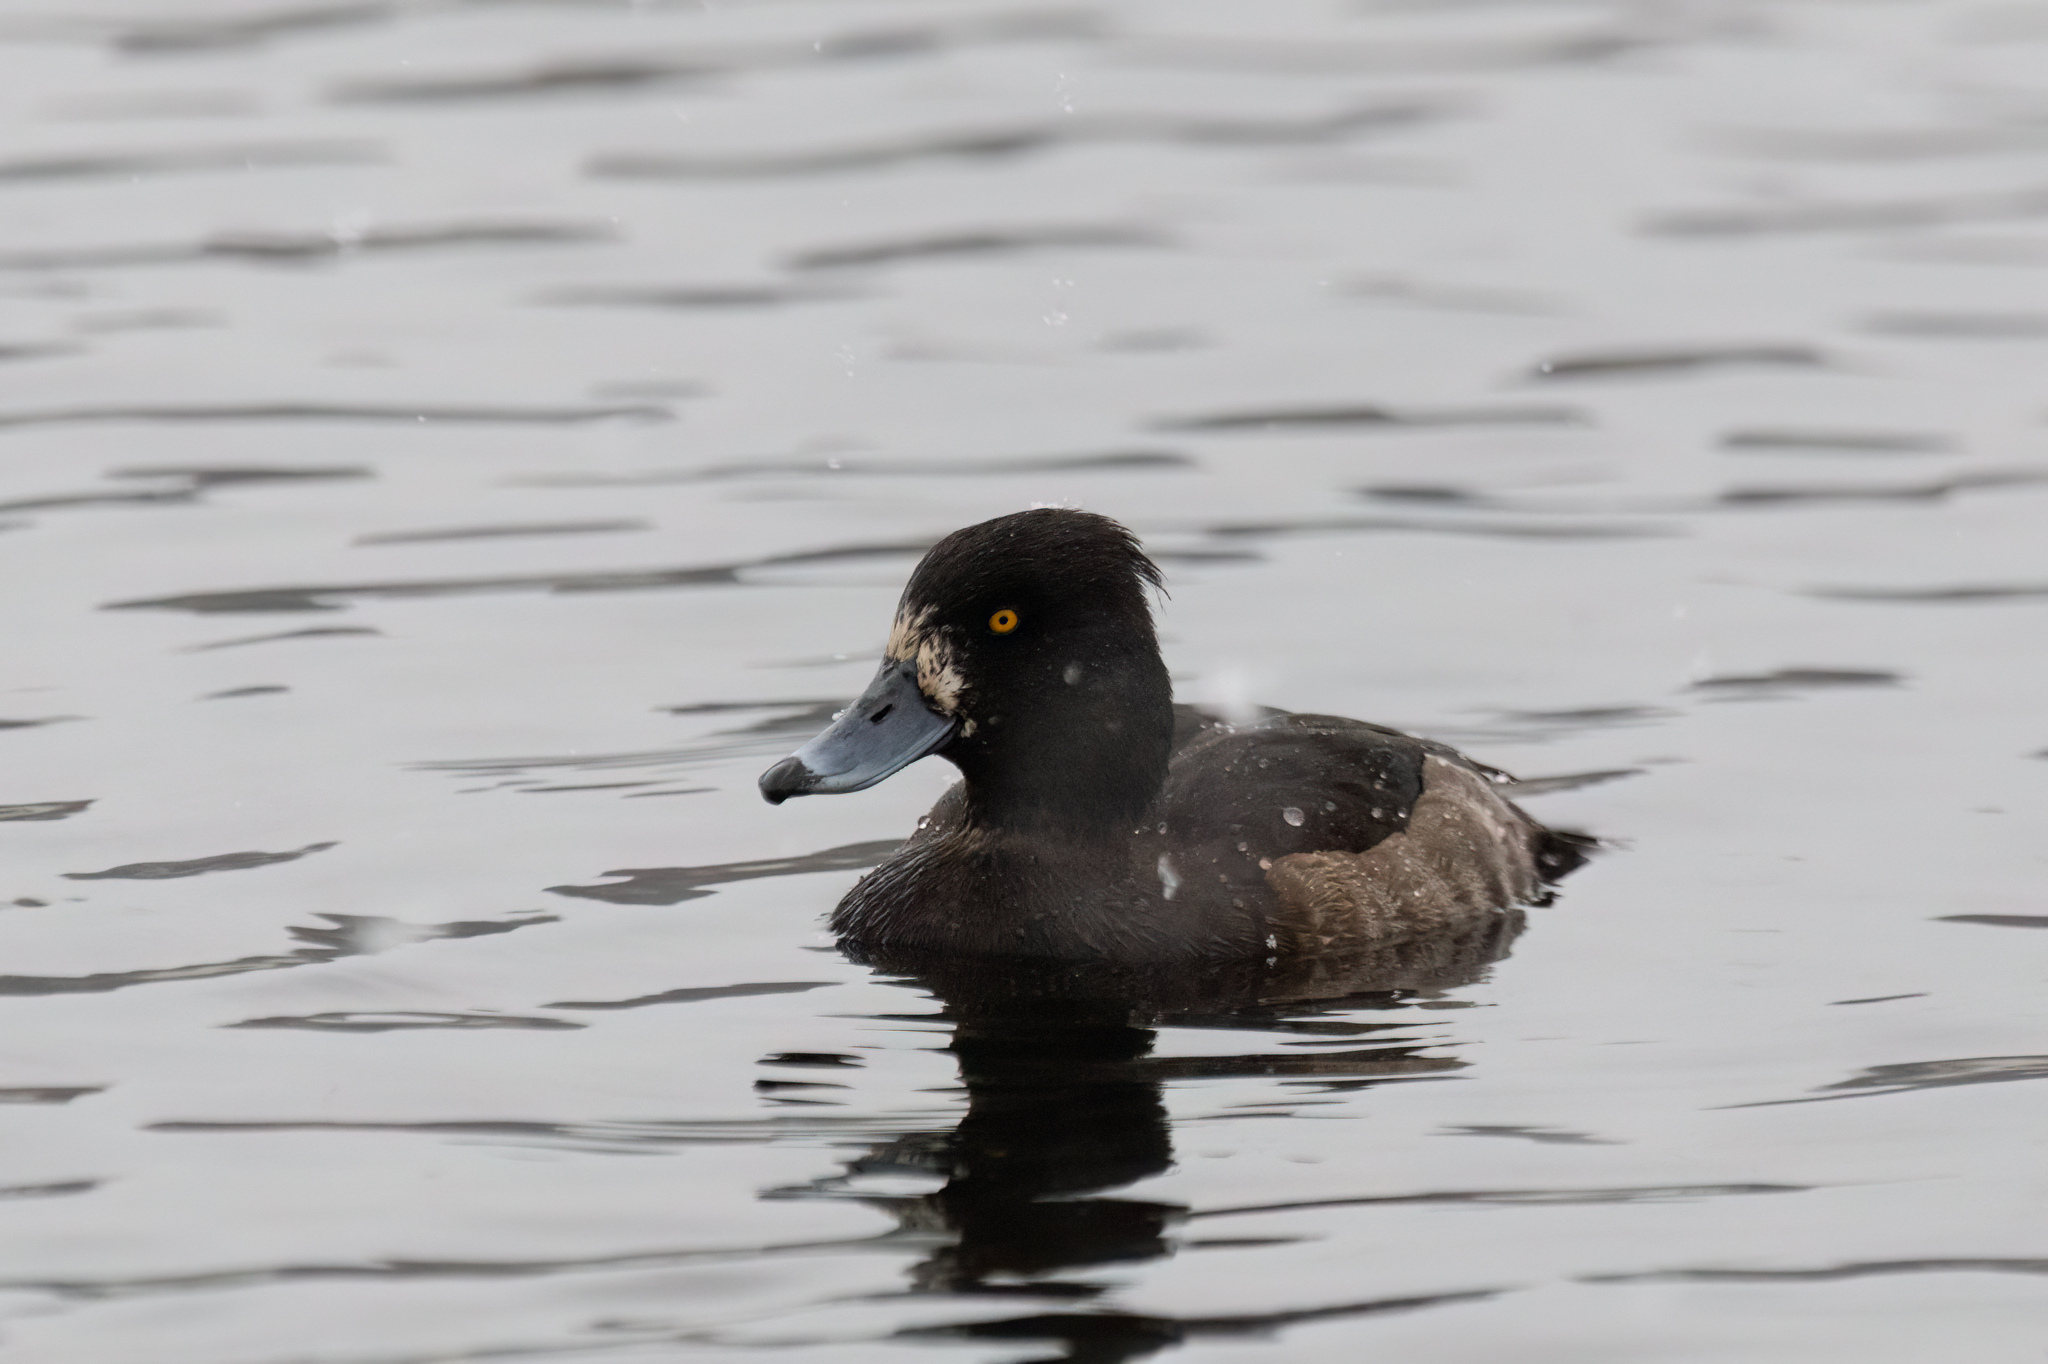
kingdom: Animalia
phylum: Chordata
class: Aves
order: Anseriformes
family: Anatidae
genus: Aythya
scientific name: Aythya fuligula
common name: Tufted duck
